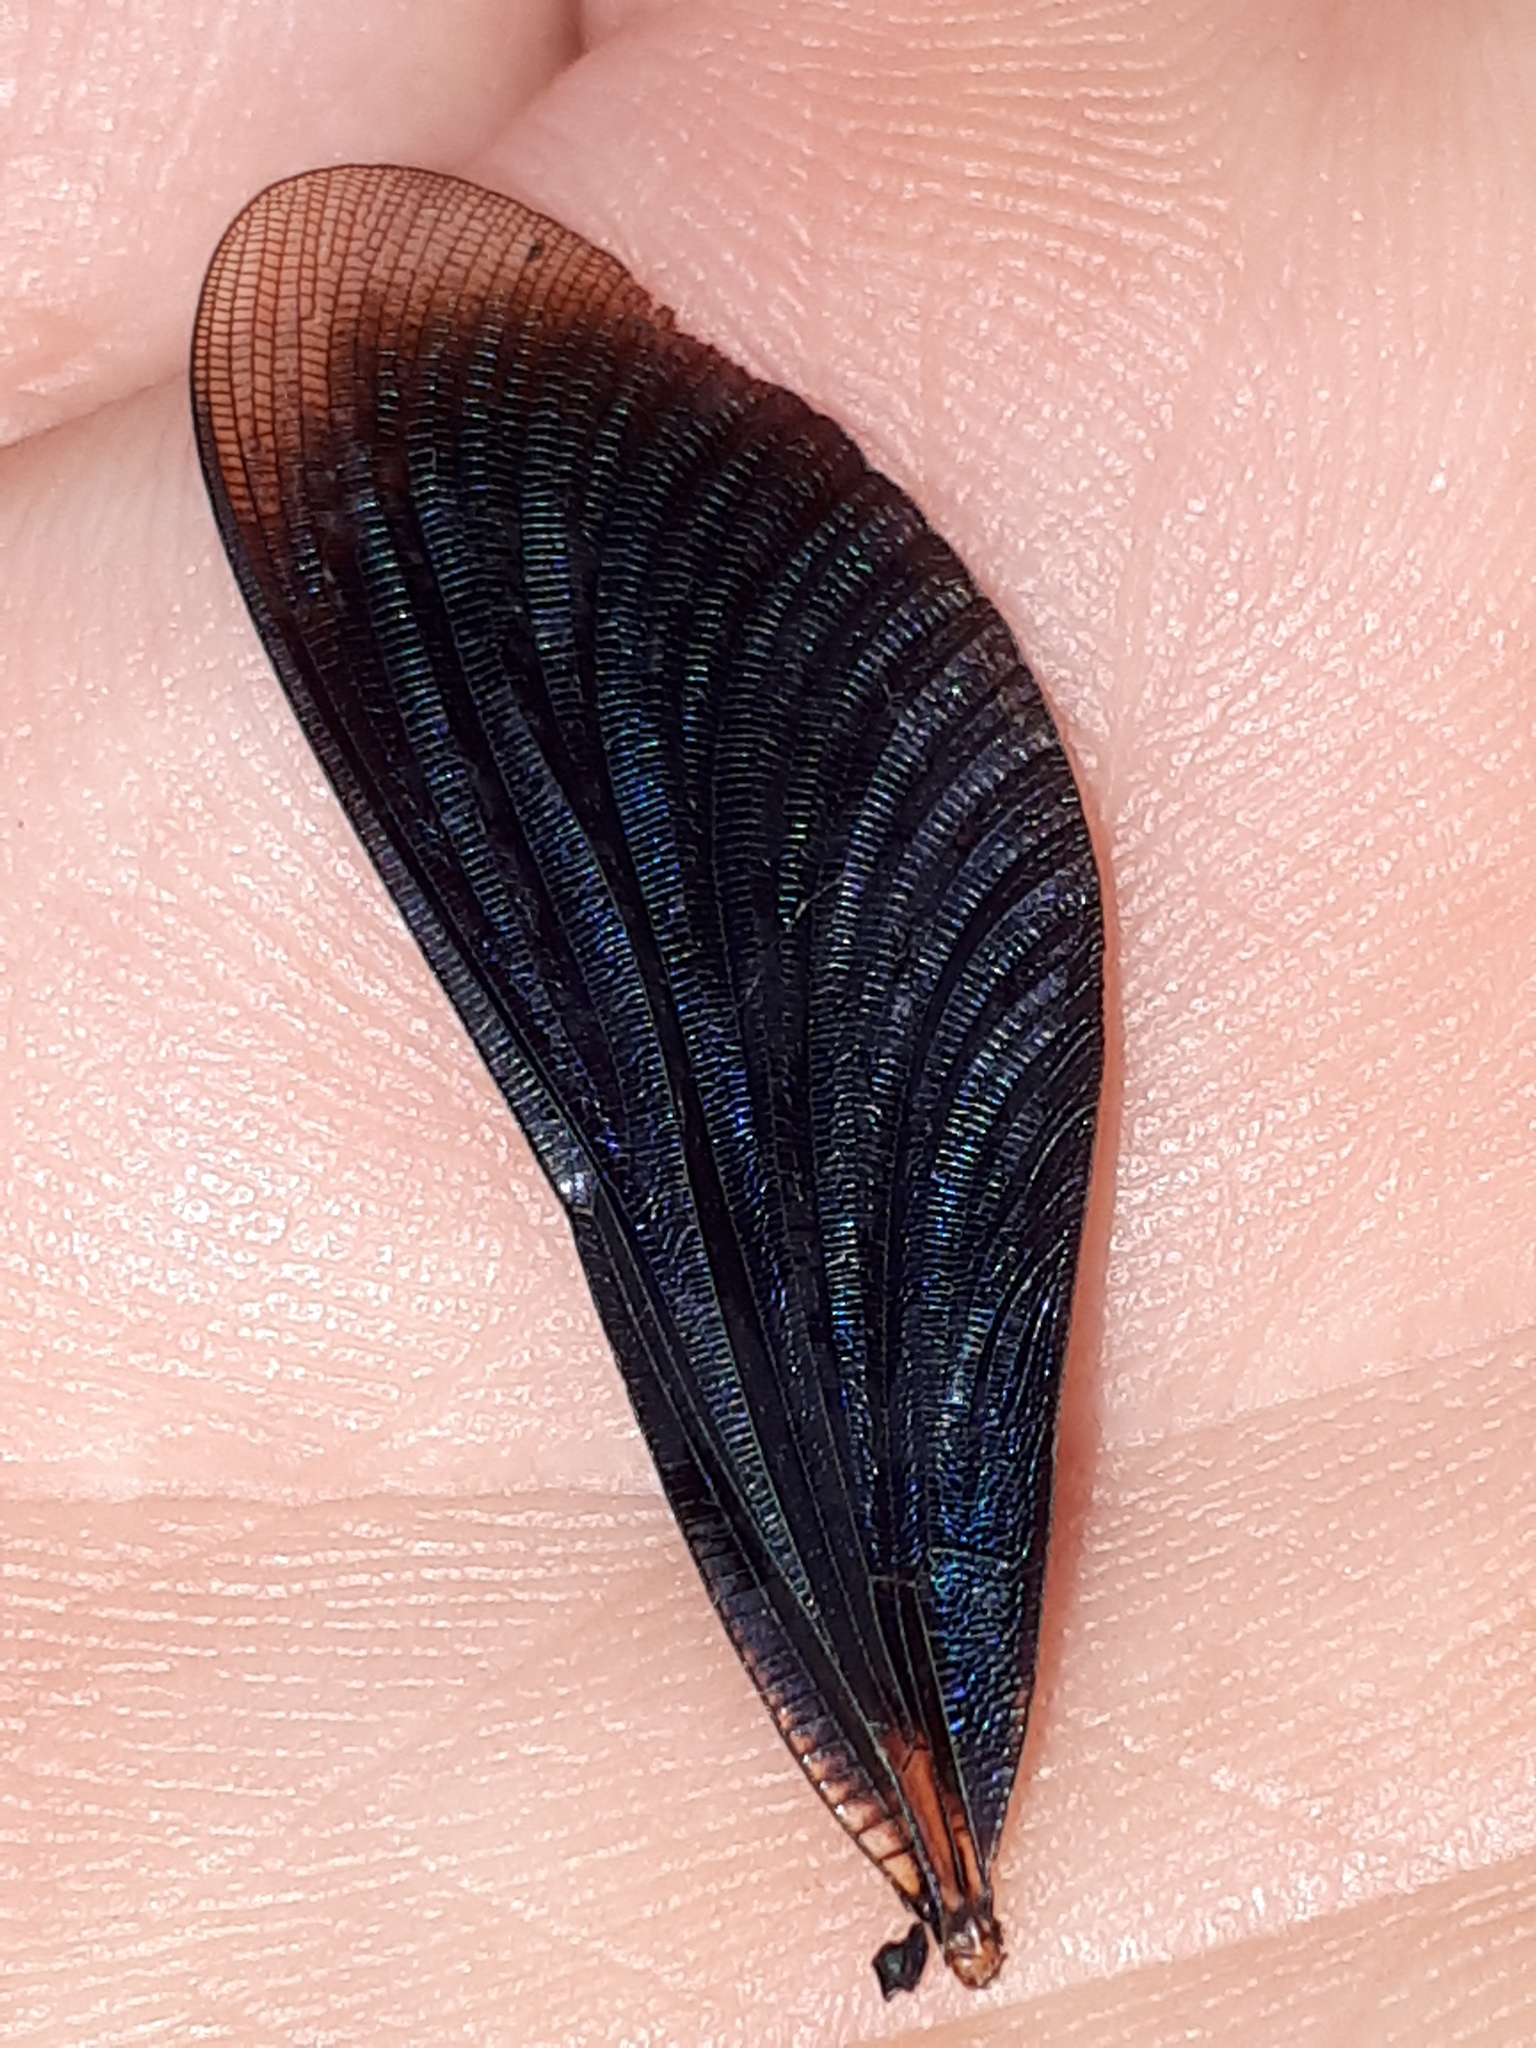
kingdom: Animalia
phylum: Arthropoda
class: Insecta
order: Odonata
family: Calopterygidae
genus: Calopteryx
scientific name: Calopteryx virgo
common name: Beautiful demoiselle
